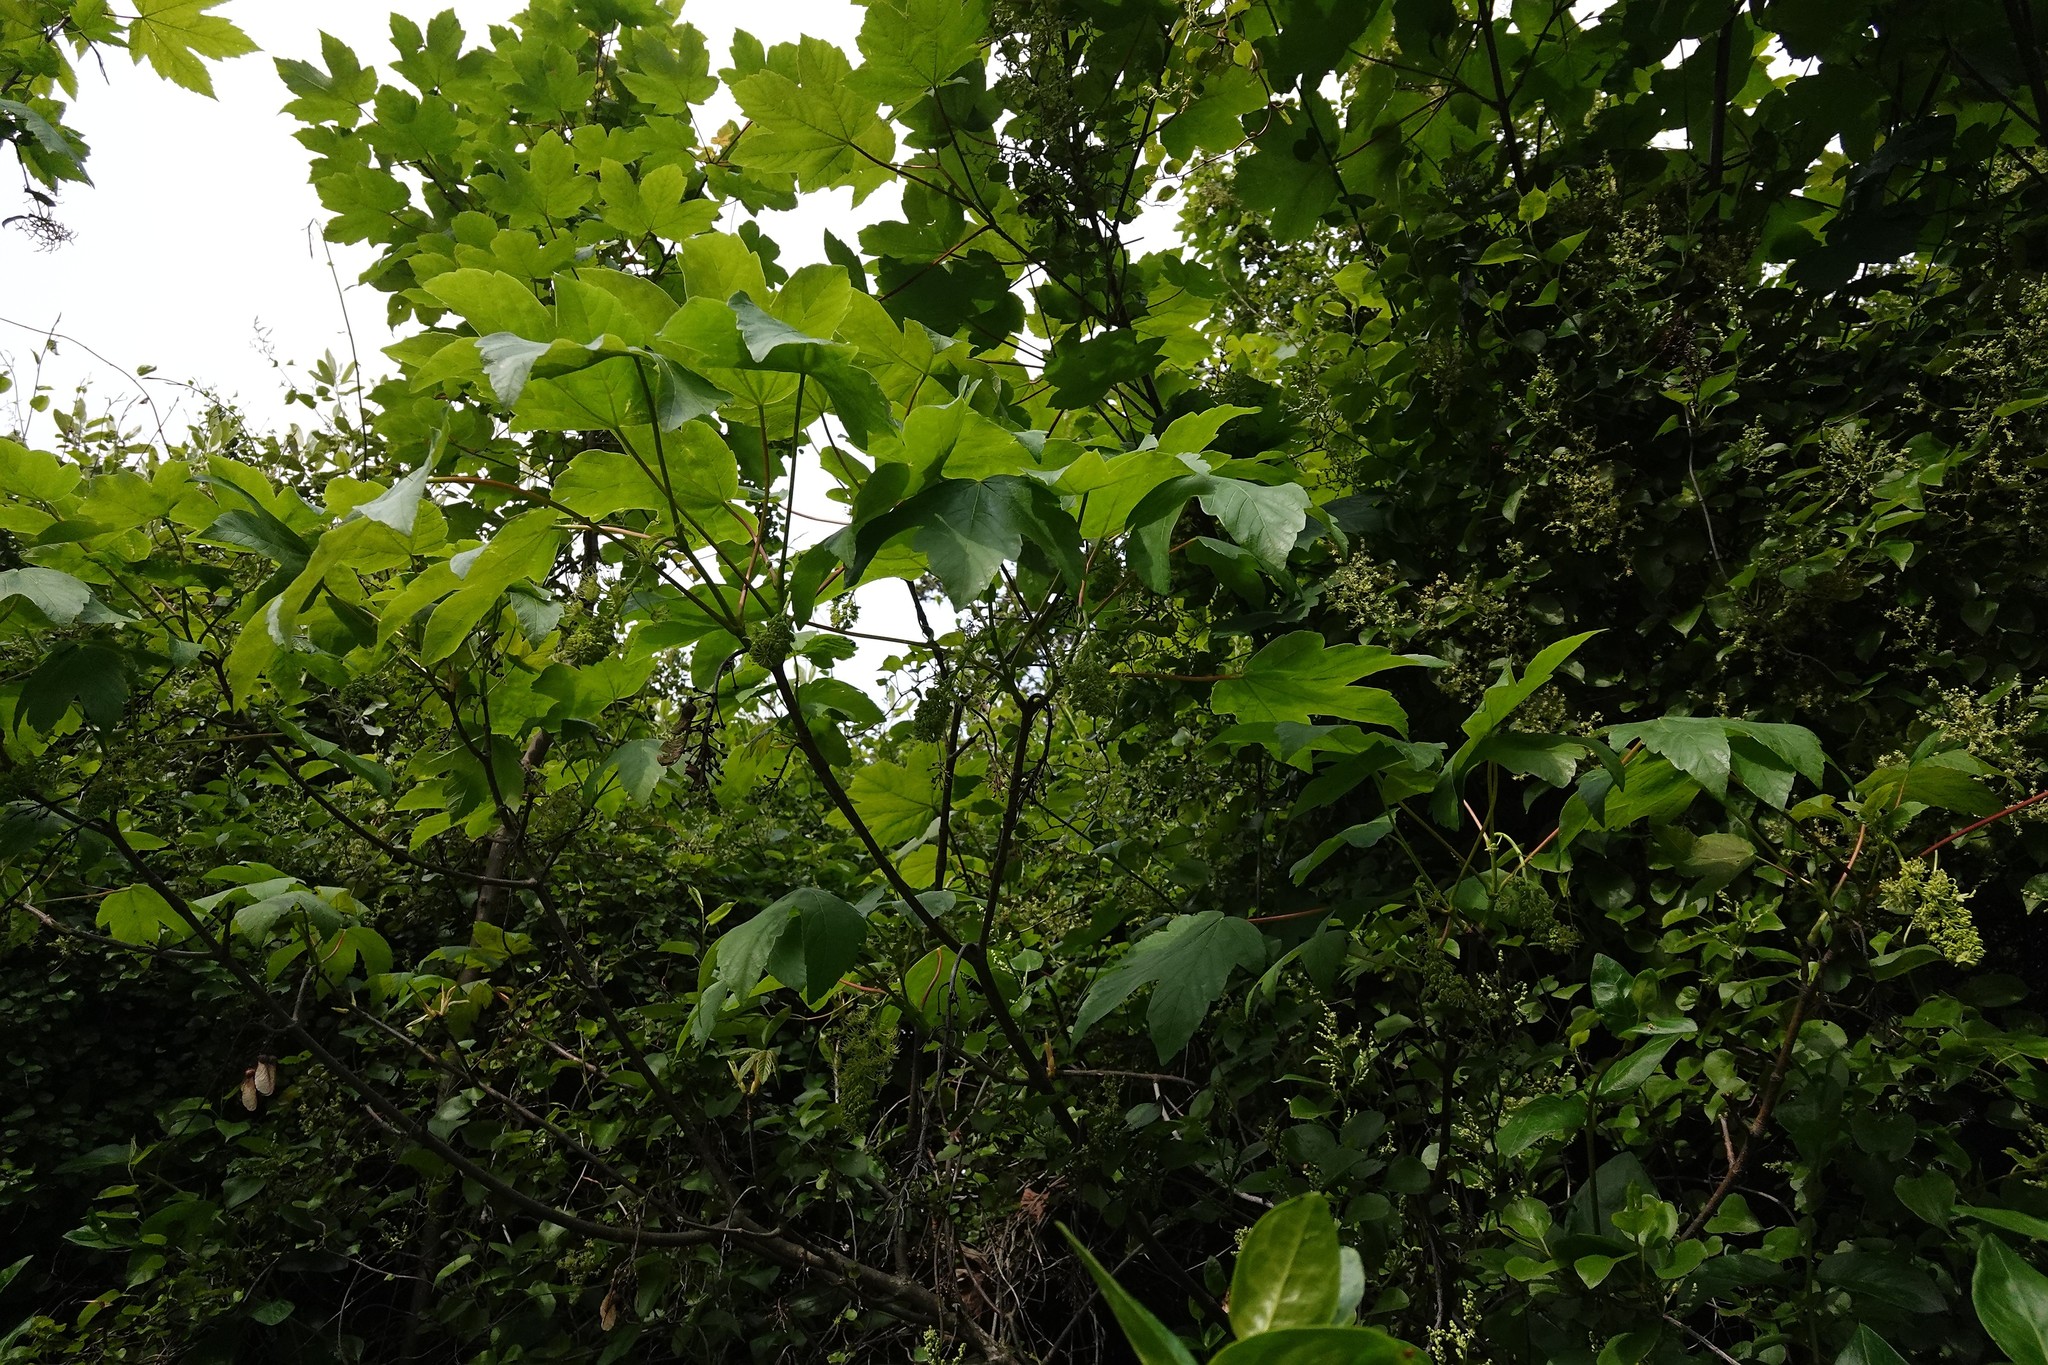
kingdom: Plantae
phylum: Tracheophyta
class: Magnoliopsida
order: Sapindales
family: Sapindaceae
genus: Acer
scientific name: Acer pseudoplatanus
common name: Sycamore
